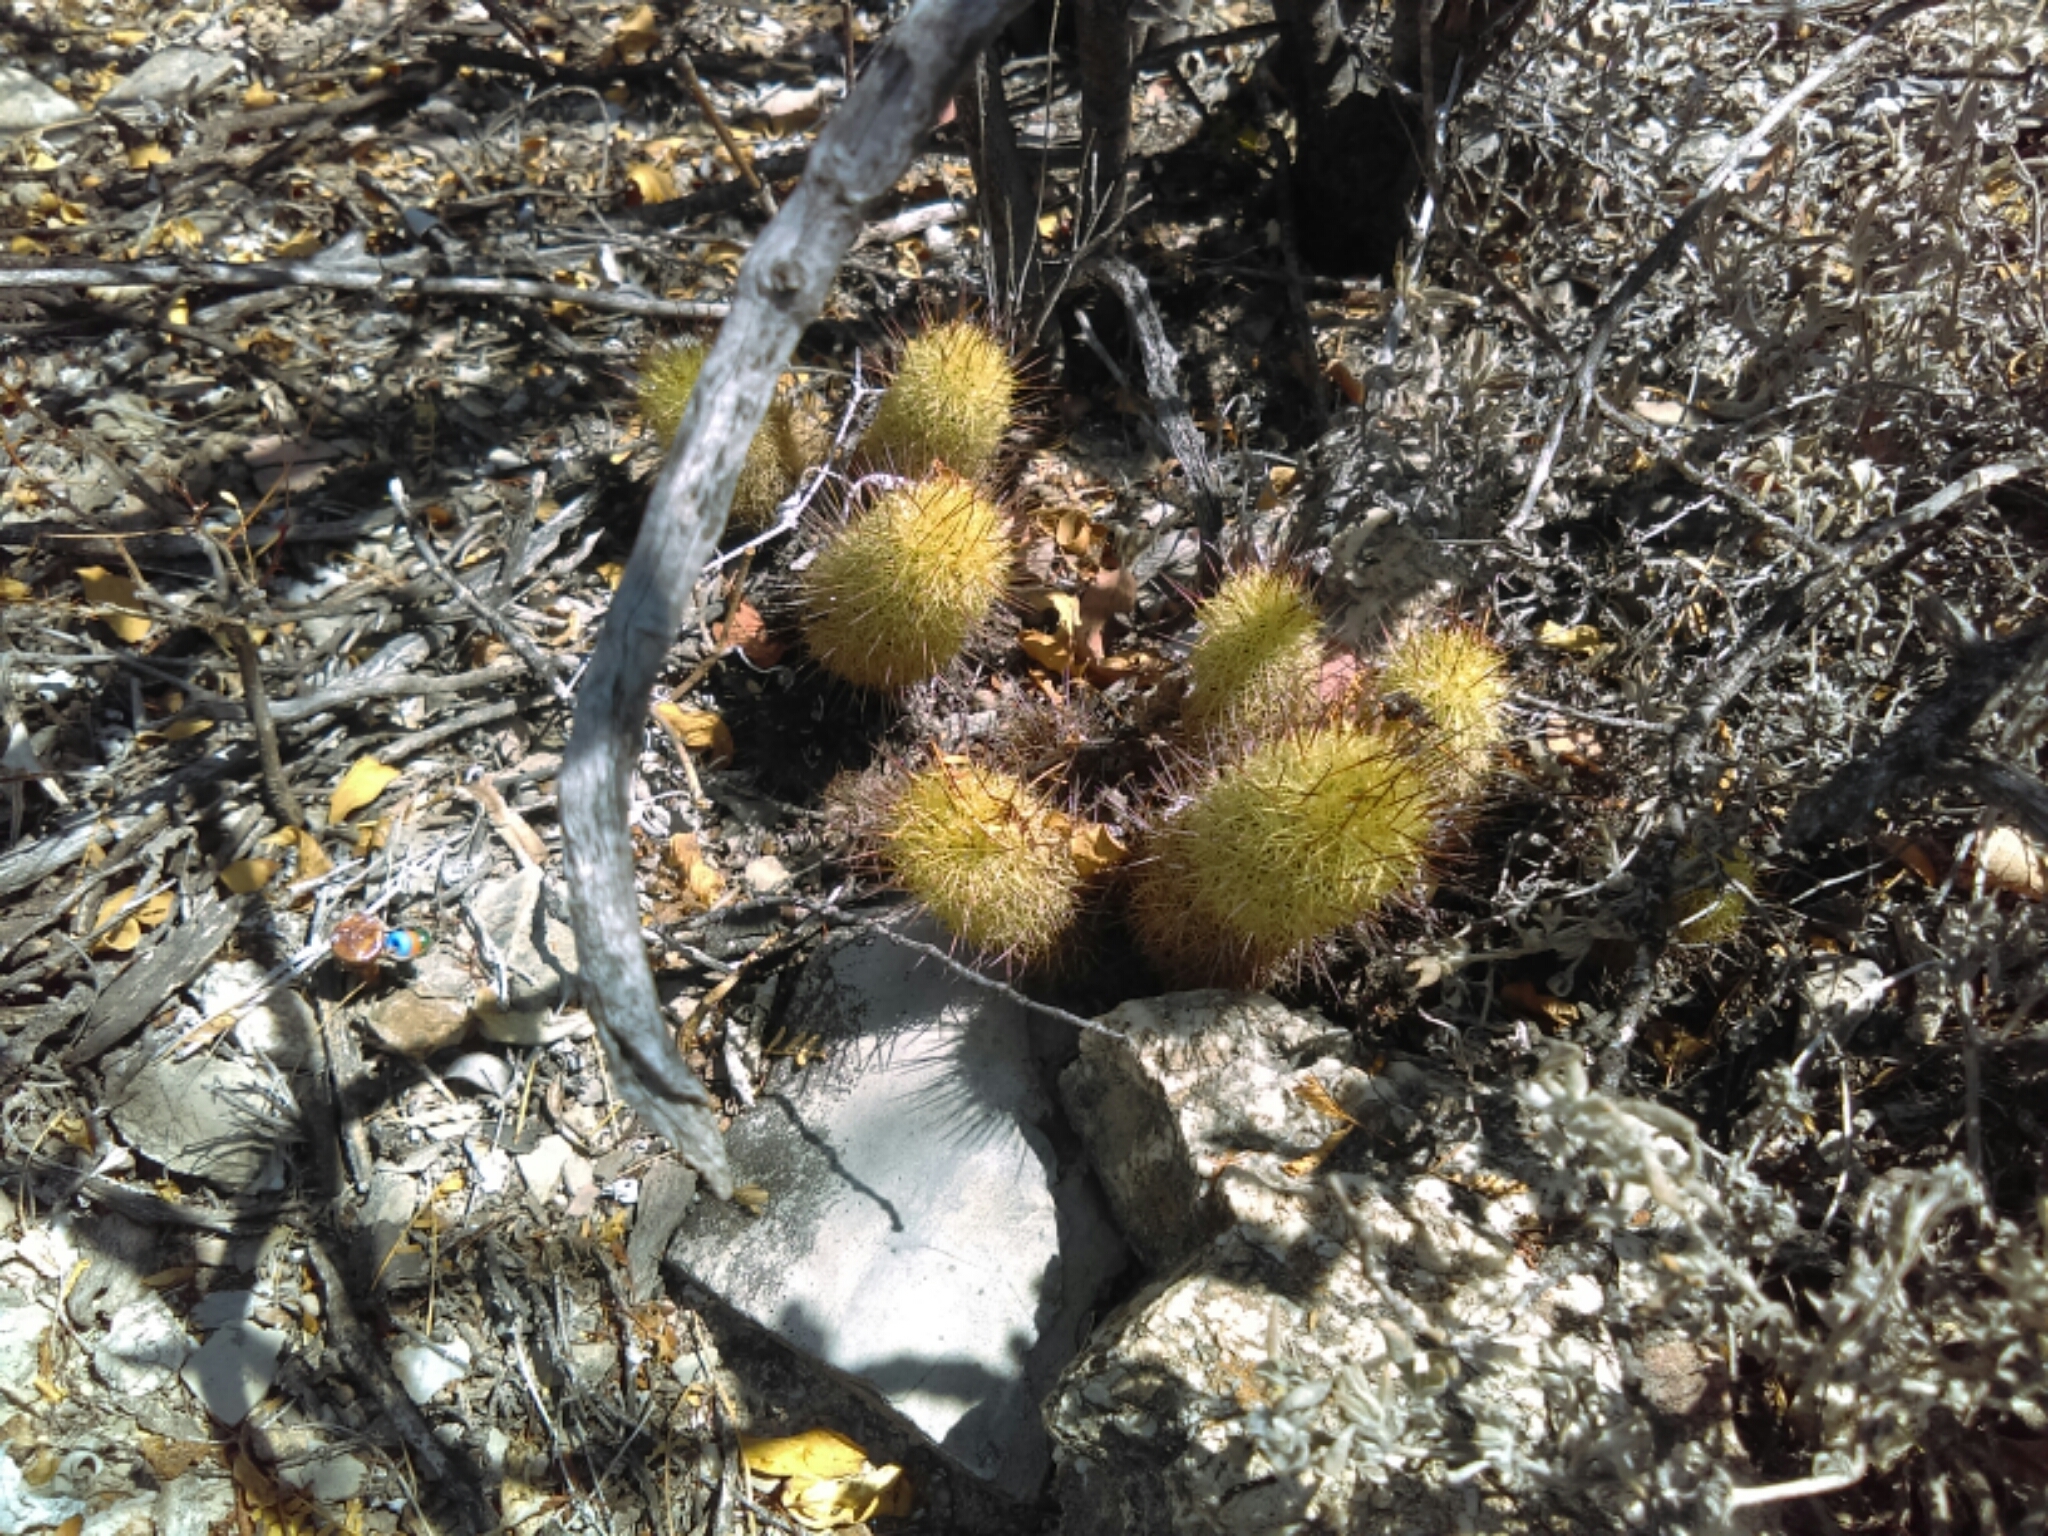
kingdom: Plantae
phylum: Tracheophyta
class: Magnoliopsida
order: Caryophyllales
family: Cactaceae
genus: Mammillaria
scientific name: Mammillaria elongata
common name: Golden star cactus
